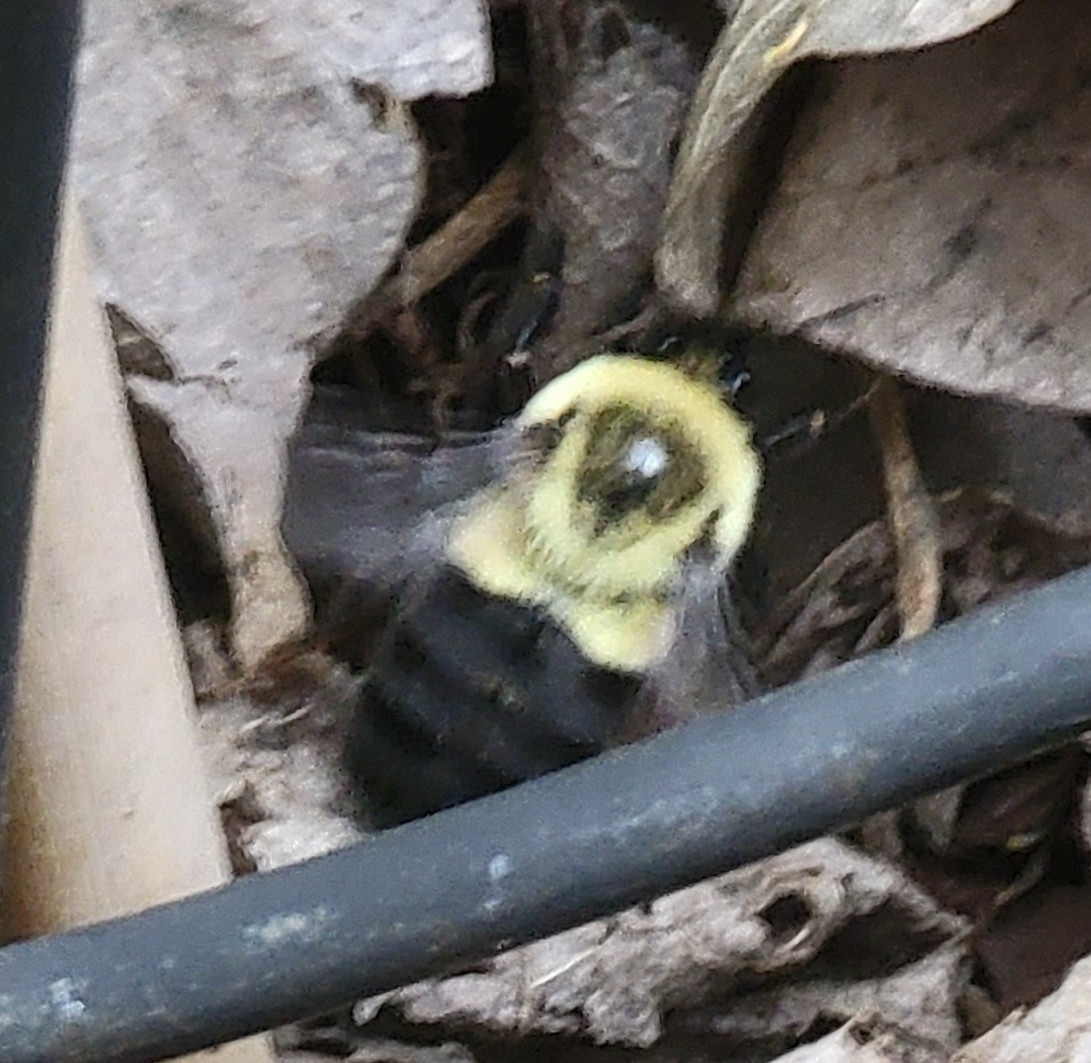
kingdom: Animalia
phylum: Arthropoda
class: Insecta
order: Hymenoptera
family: Apidae
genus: Bombus
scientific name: Bombus impatiens
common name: Common eastern bumble bee
